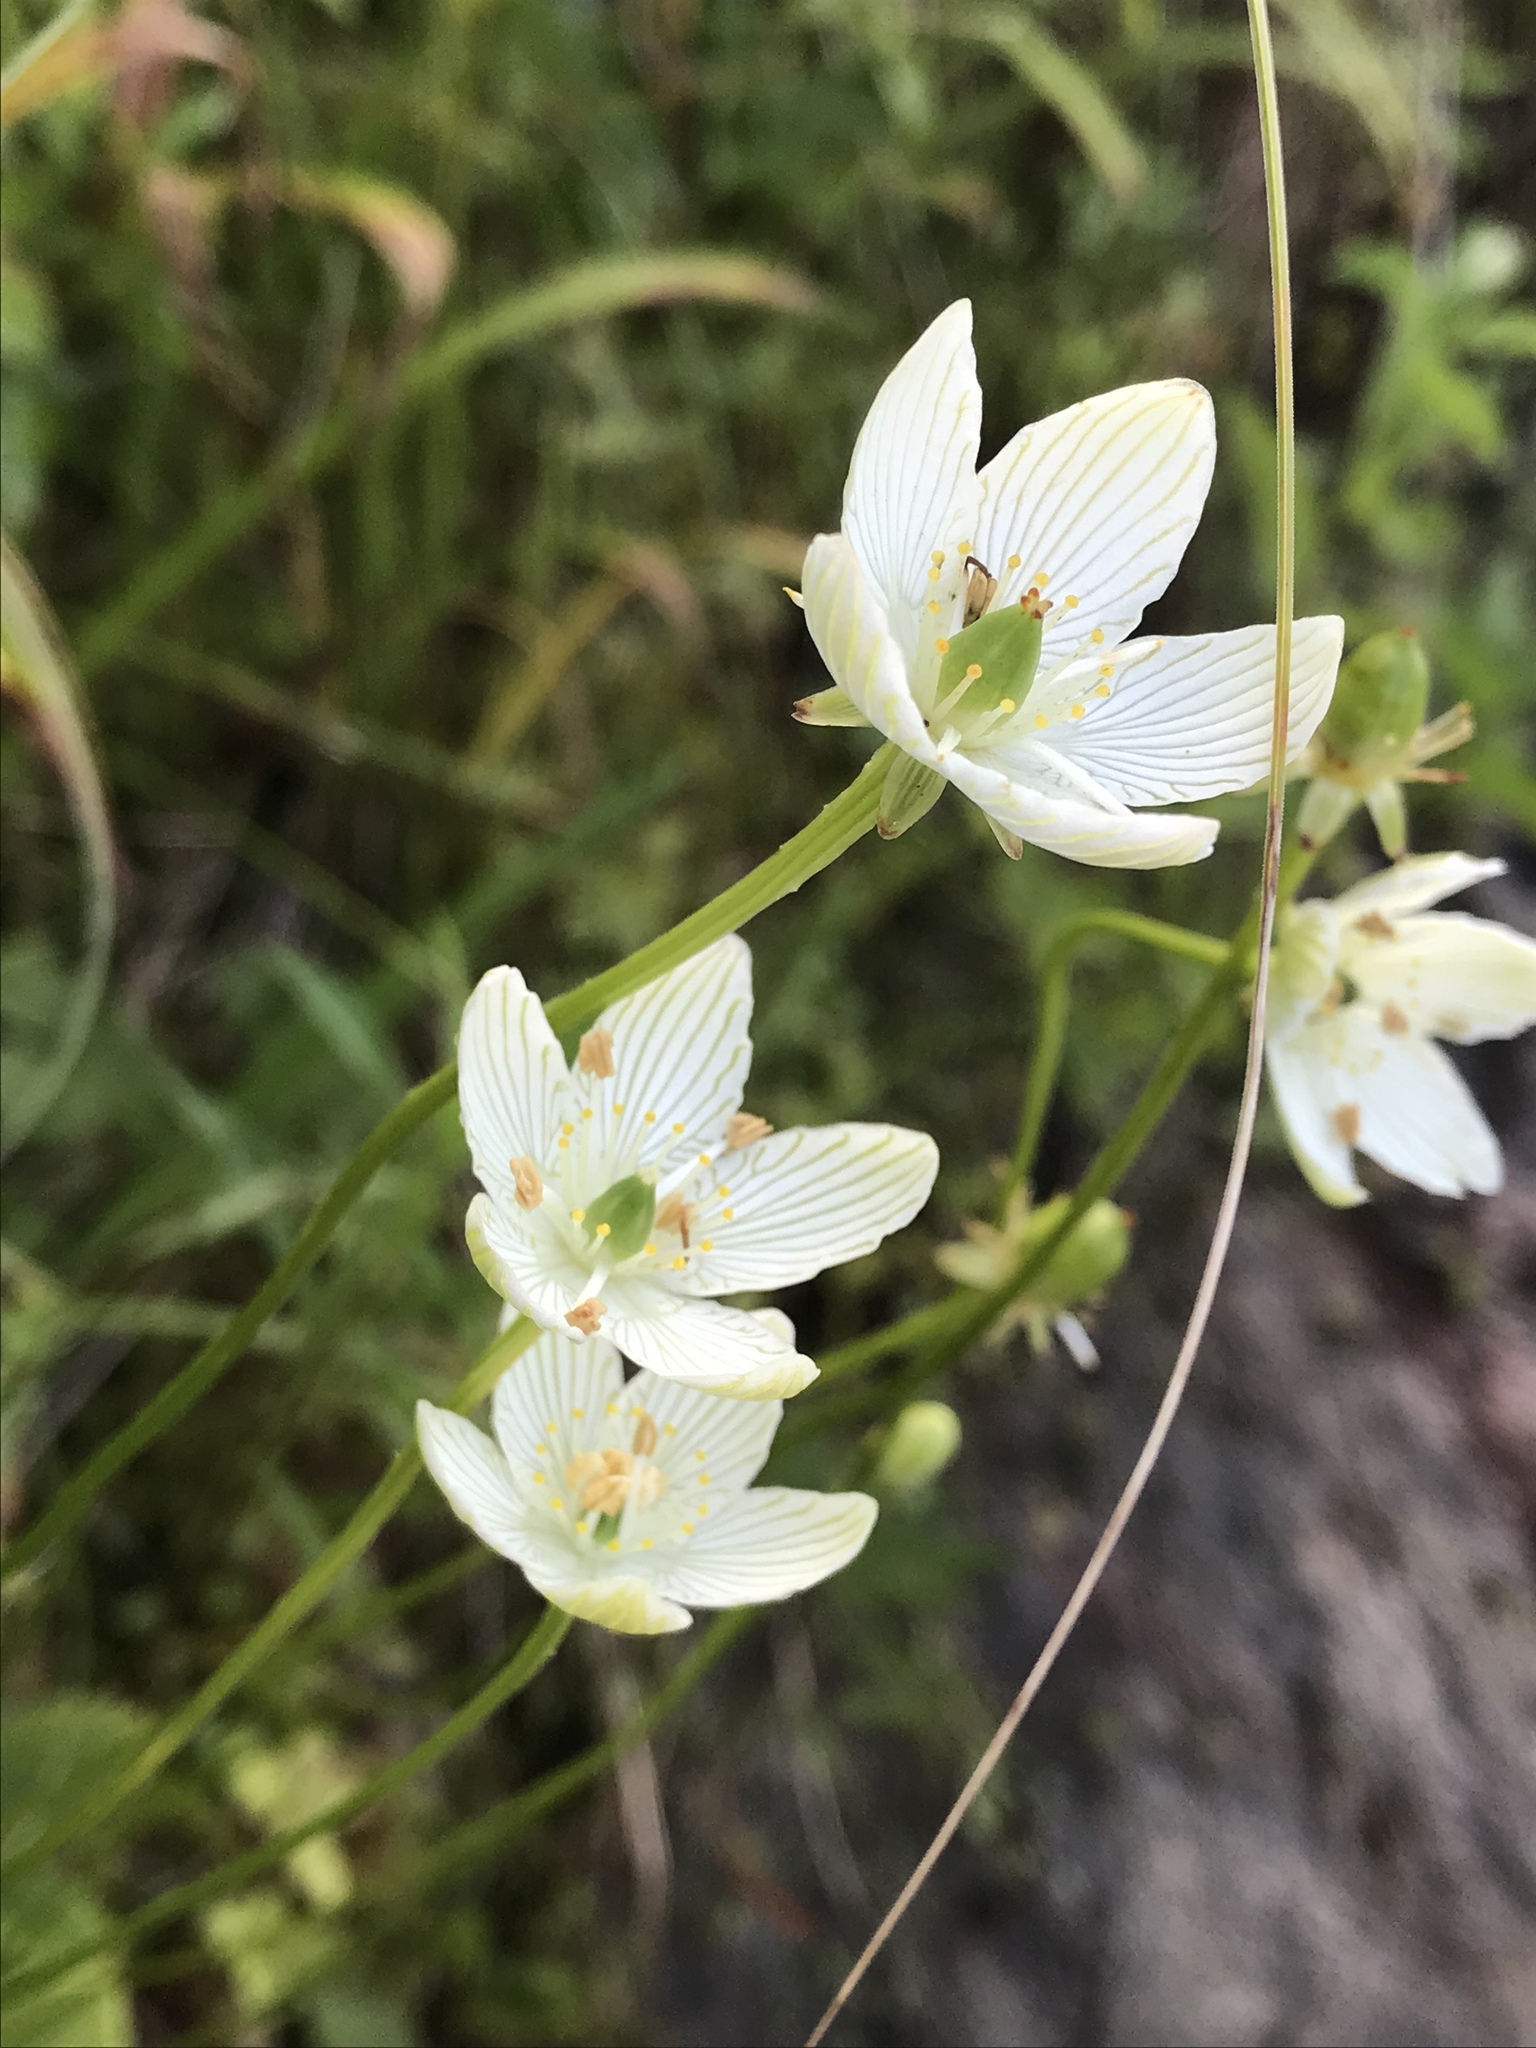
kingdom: Plantae
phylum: Tracheophyta
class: Magnoliopsida
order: Celastrales
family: Parnassiaceae
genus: Parnassia
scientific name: Parnassia glauca
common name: American grass-of-parnassus
